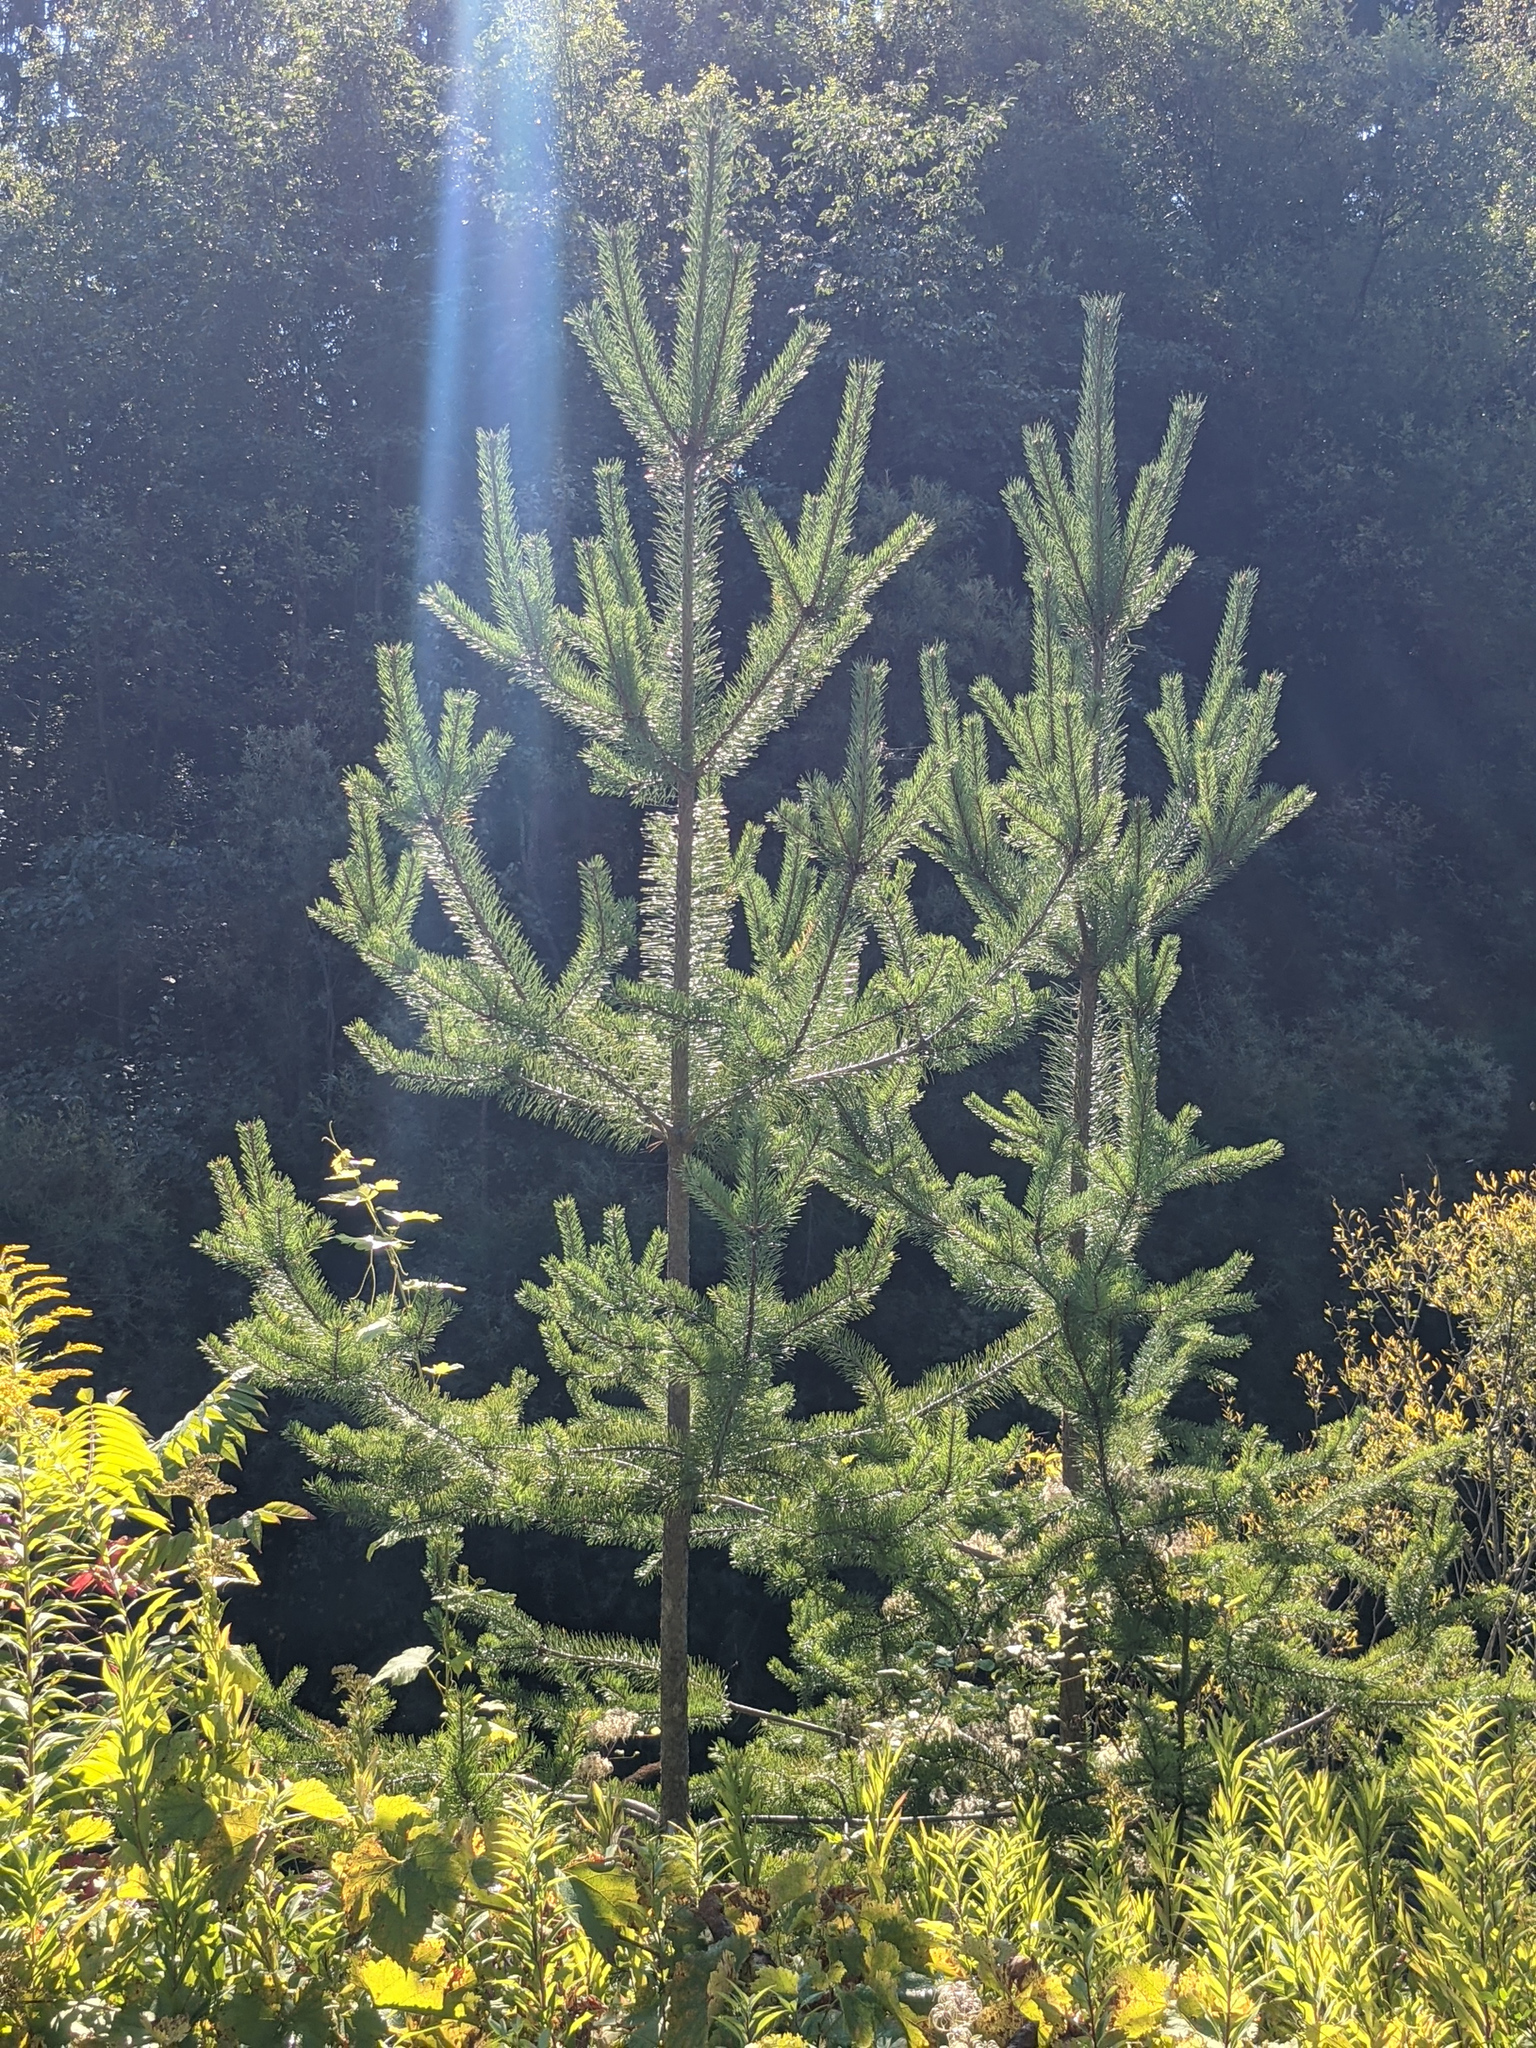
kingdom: Plantae
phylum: Tracheophyta
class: Pinopsida
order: Pinales
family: Pinaceae
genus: Pinus
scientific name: Pinus sylvestris
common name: Scots pine
